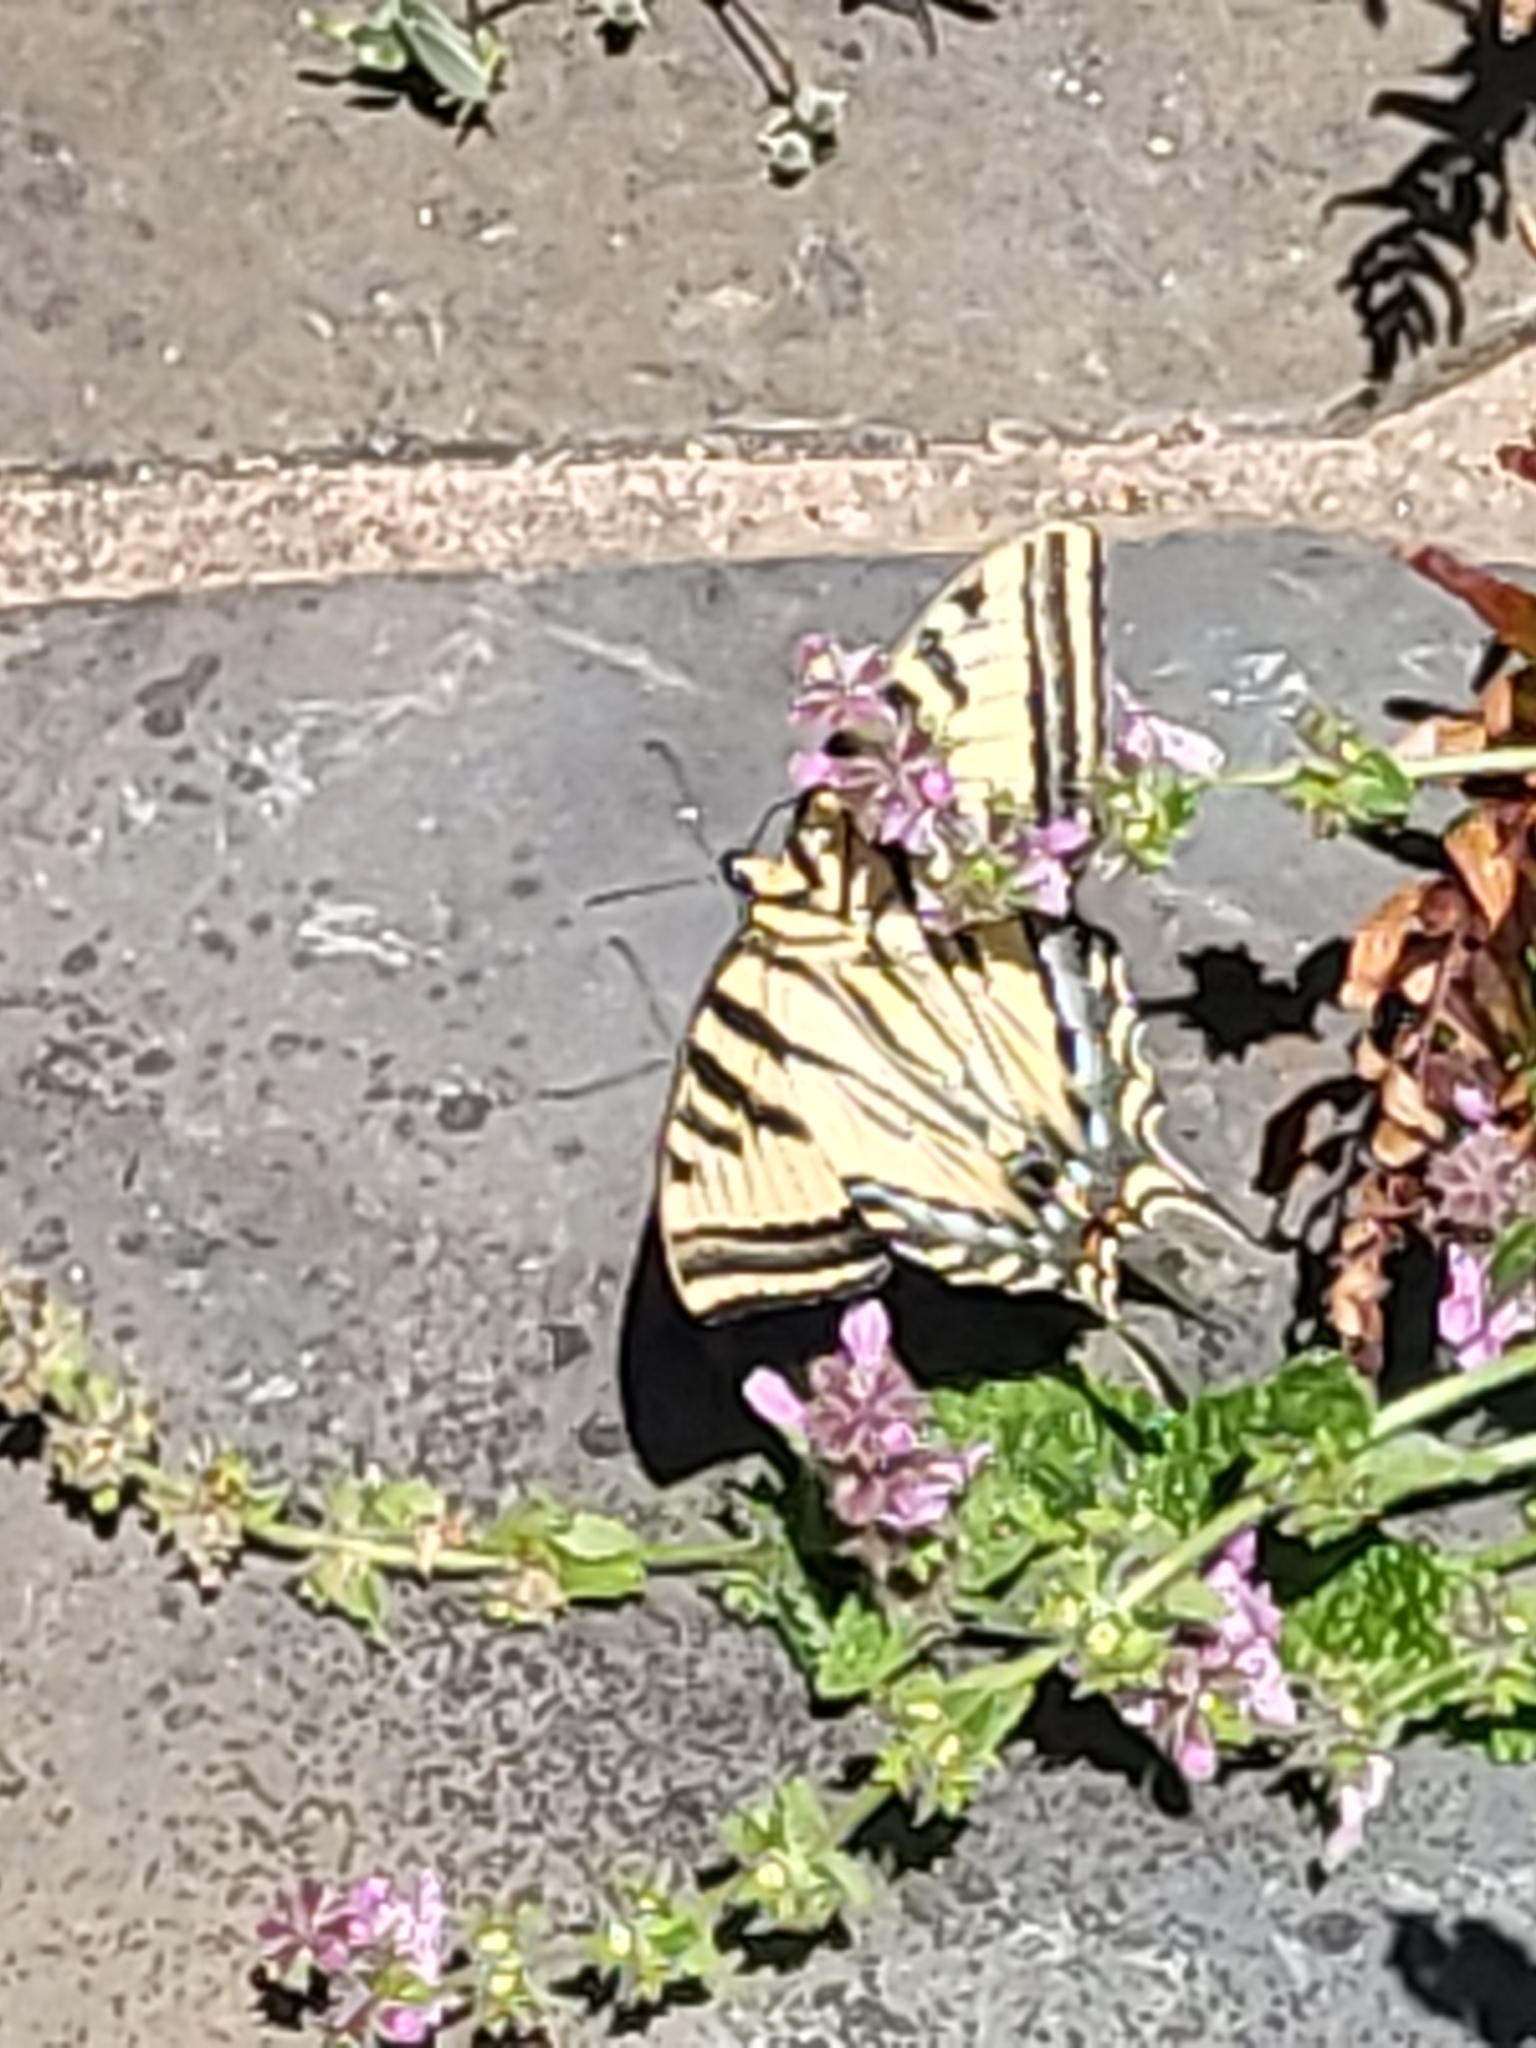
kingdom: Animalia
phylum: Arthropoda
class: Insecta
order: Lepidoptera
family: Papilionidae
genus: Papilio
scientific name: Papilio rutulus
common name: Western tiger swallowtail
